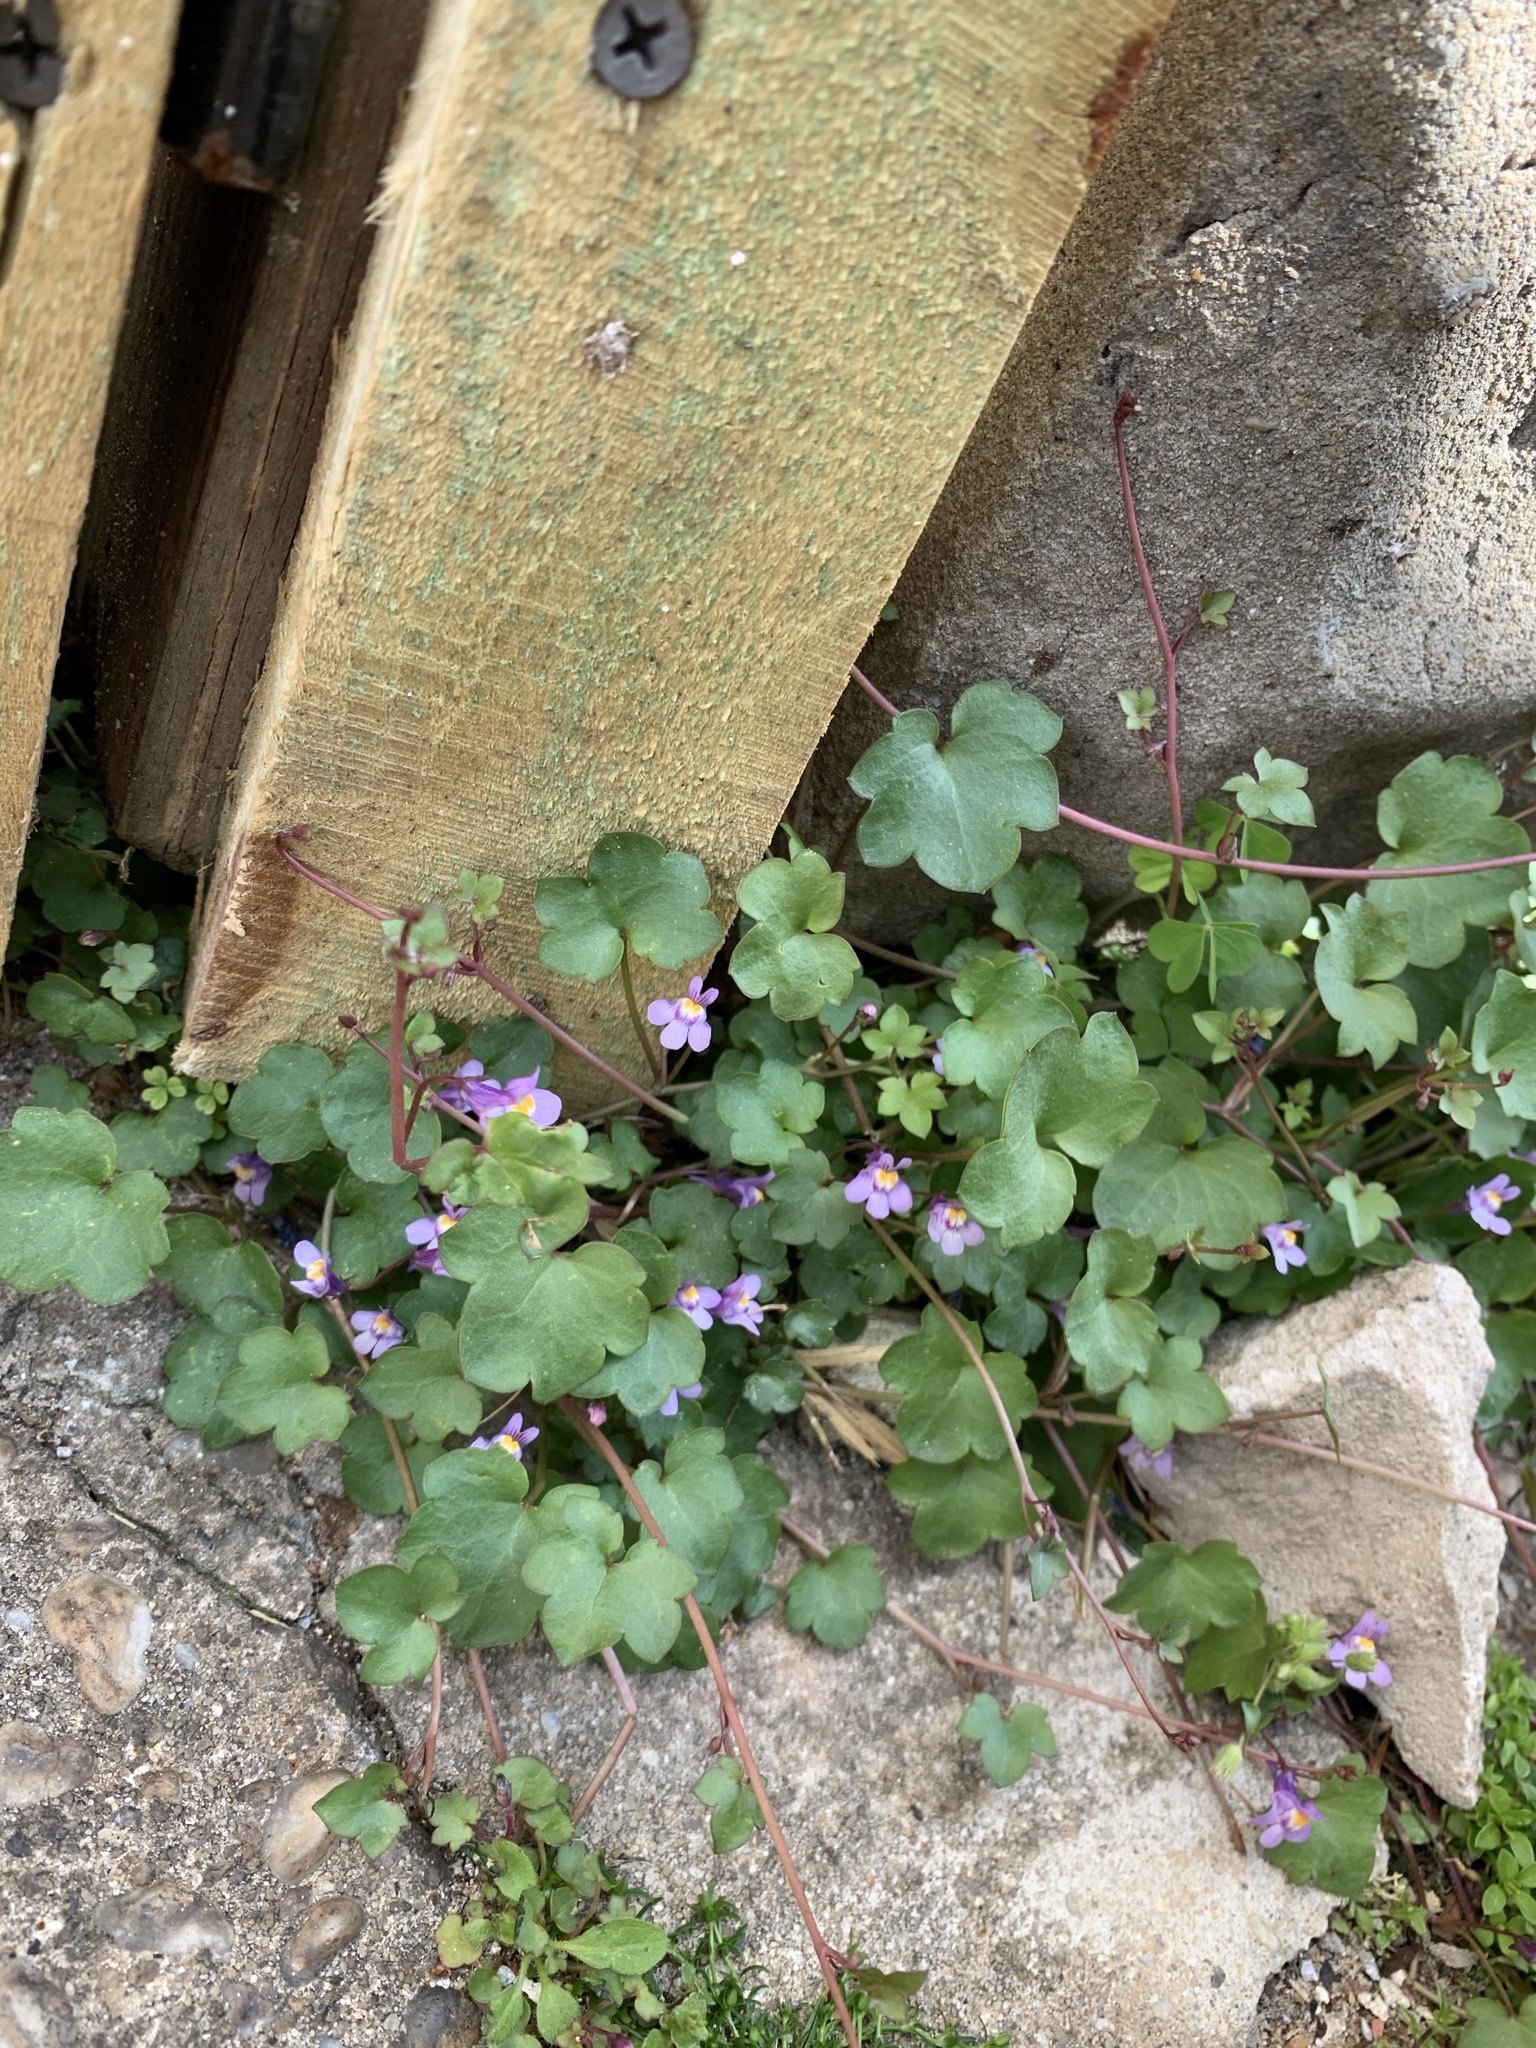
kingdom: Plantae
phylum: Tracheophyta
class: Magnoliopsida
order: Lamiales
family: Plantaginaceae
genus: Cymbalaria
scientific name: Cymbalaria muralis
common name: Ivy-leaved toadflax
